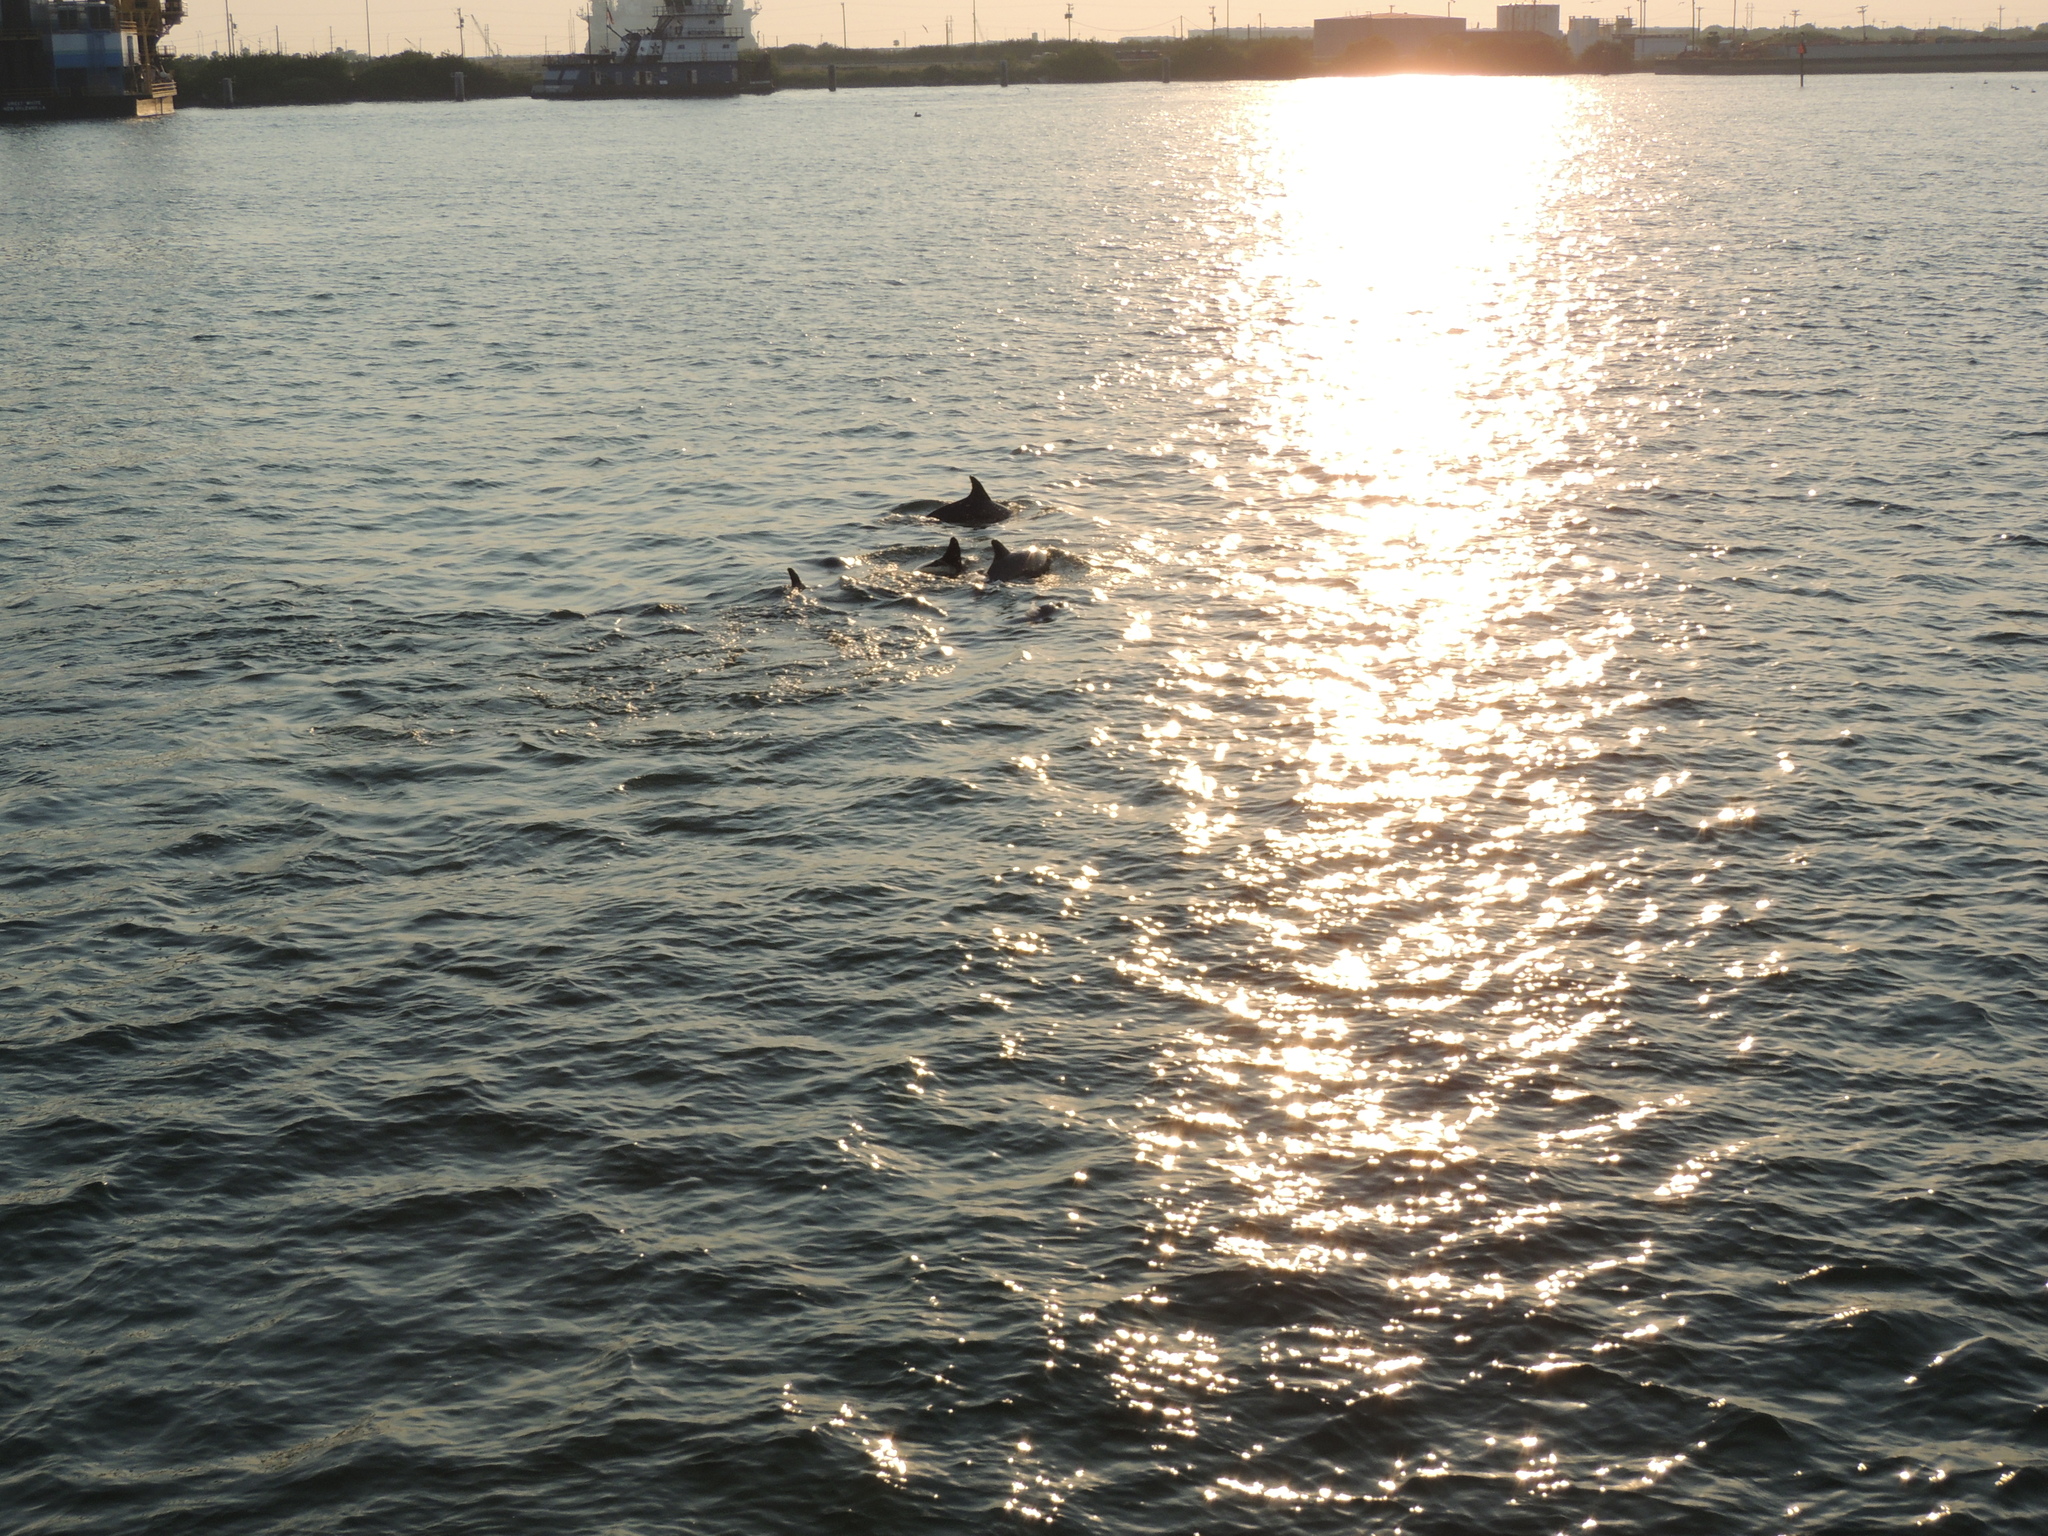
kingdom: Animalia
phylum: Chordata
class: Mammalia
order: Cetacea
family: Delphinidae
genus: Tursiops
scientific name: Tursiops truncatus
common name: Bottlenose dolphin
